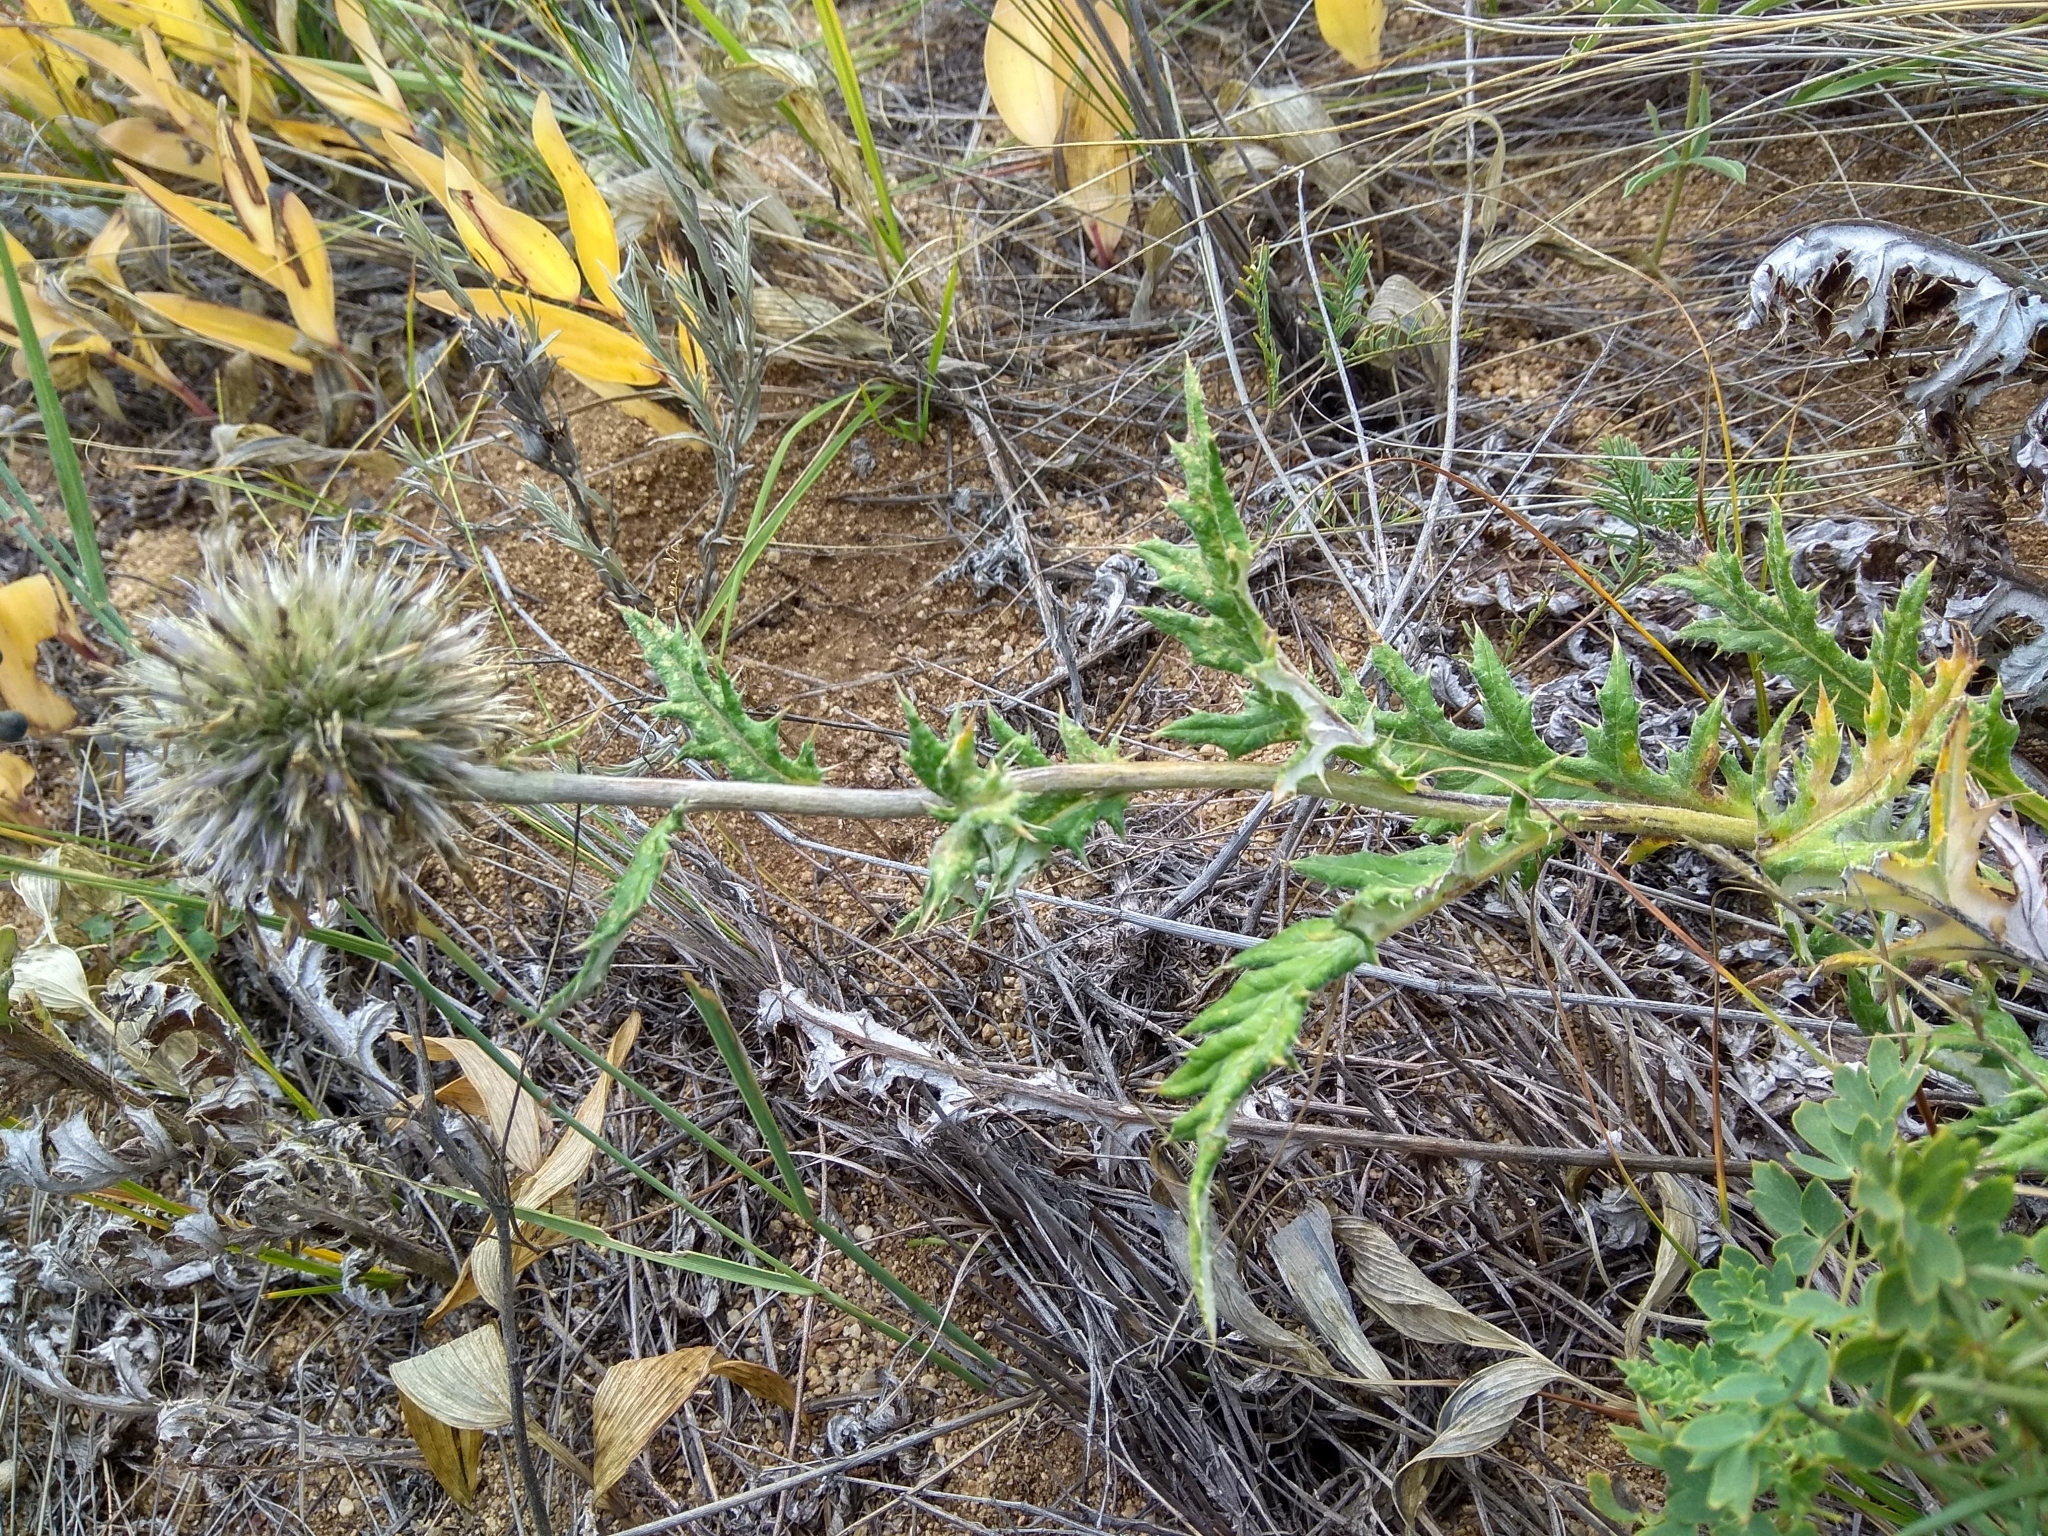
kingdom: Plantae
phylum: Tracheophyta
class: Magnoliopsida
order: Asterales
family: Asteraceae
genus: Echinops
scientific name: Echinops davuricus
